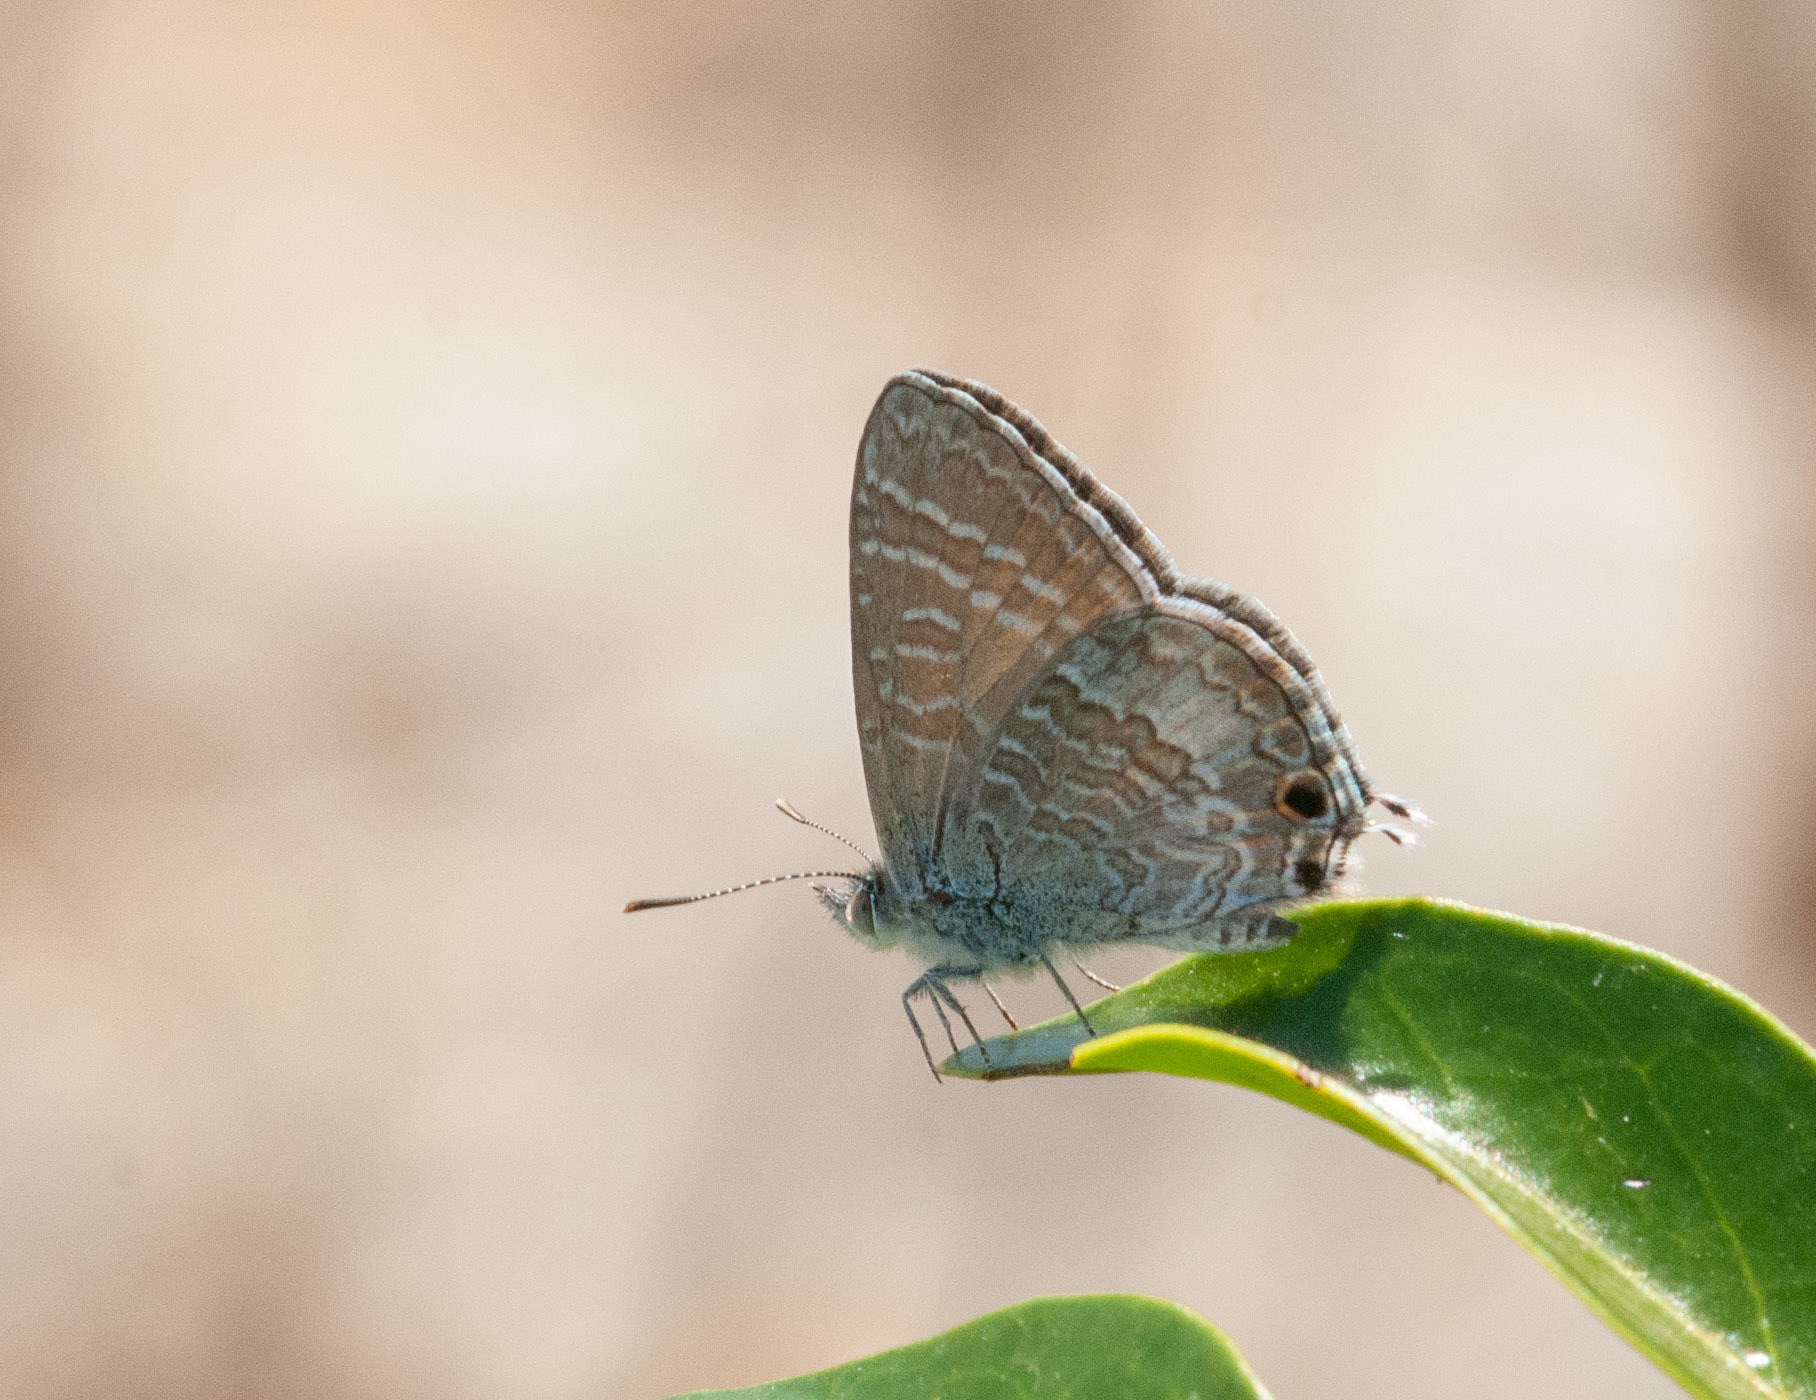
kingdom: Animalia
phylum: Arthropoda
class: Insecta
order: Lepidoptera
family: Lycaenidae
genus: Theclinesthes
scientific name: Theclinesthes onycha
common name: Cycad blue
